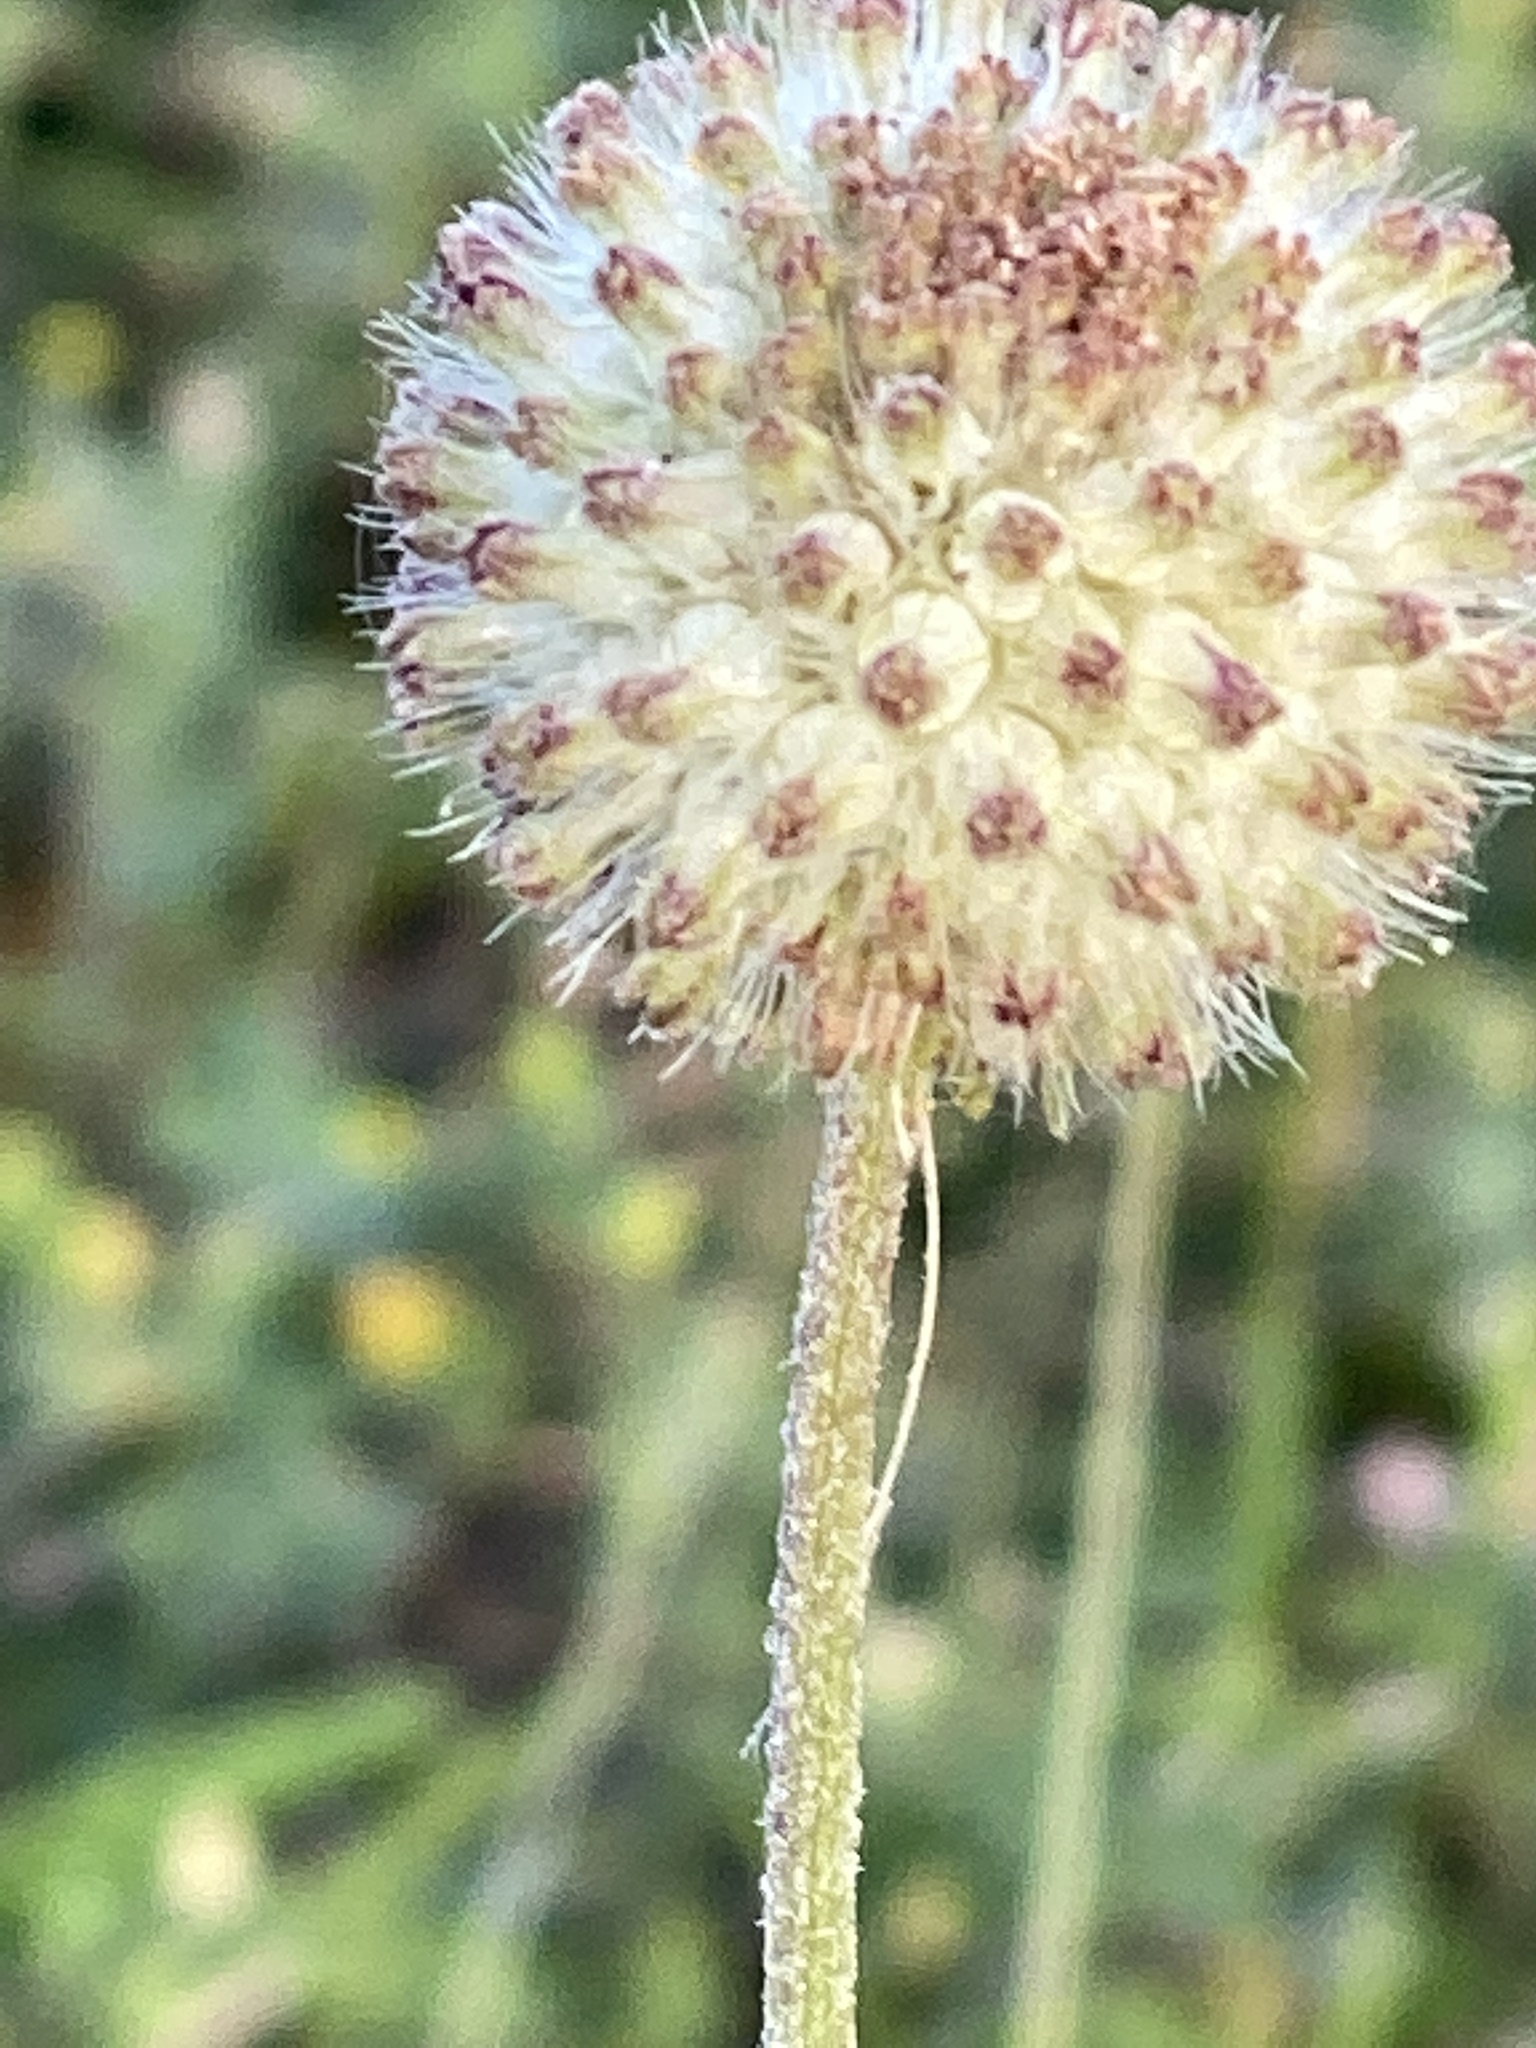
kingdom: Plantae
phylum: Tracheophyta
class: Magnoliopsida
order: Asterales
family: Asteraceae
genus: Gaillardia
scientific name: Gaillardia suavis
